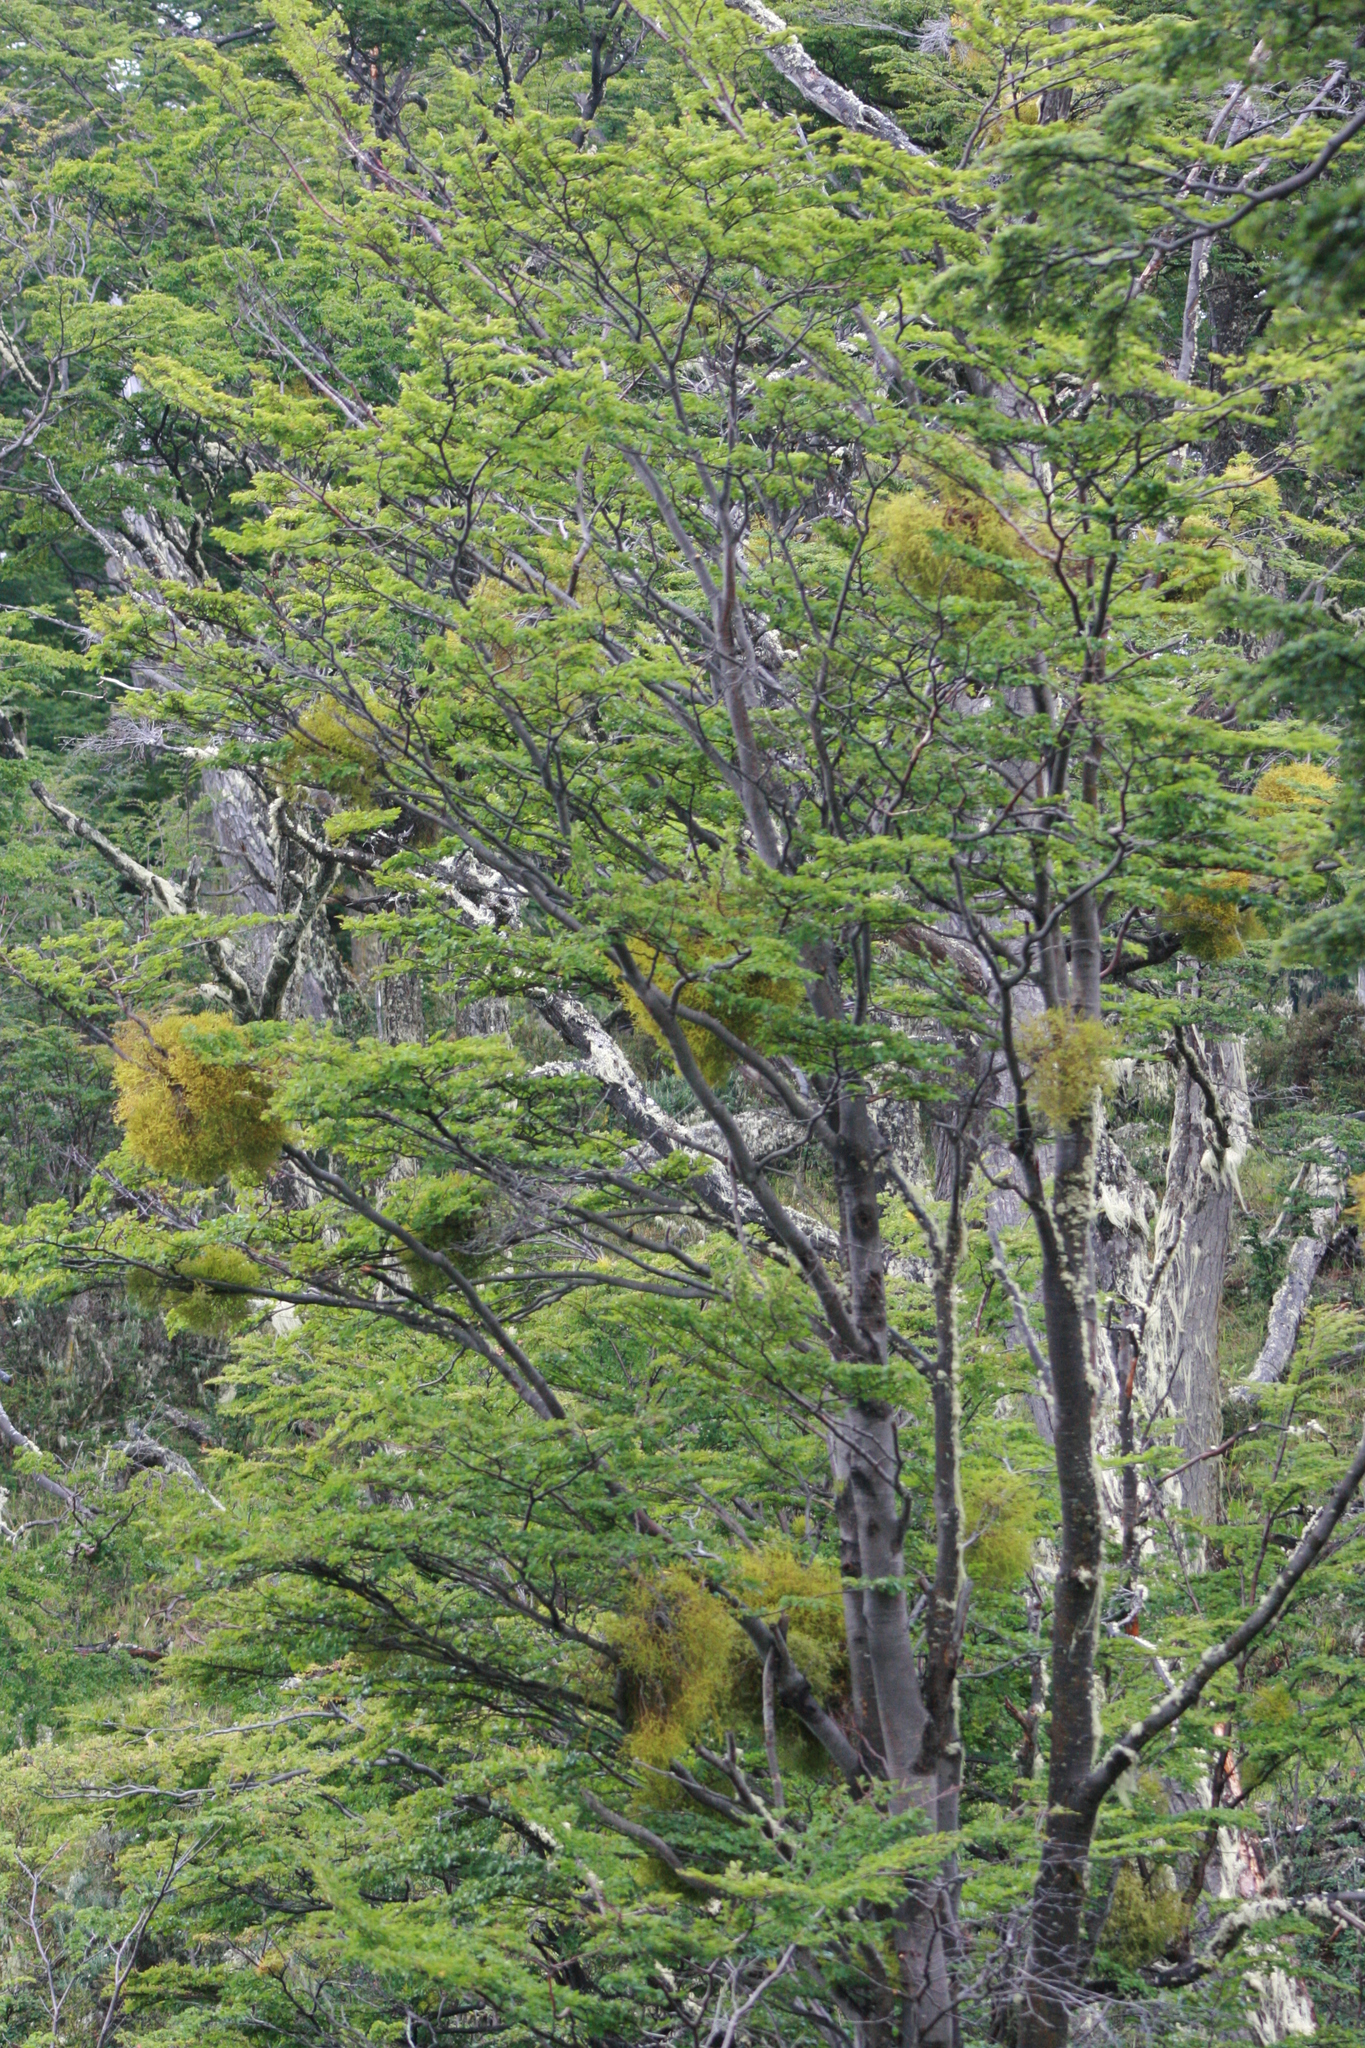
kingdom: Plantae
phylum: Tracheophyta
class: Magnoliopsida
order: Fagales
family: Nothofagaceae
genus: Nothofagus
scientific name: Nothofagus pumilio
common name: Lenga beech
